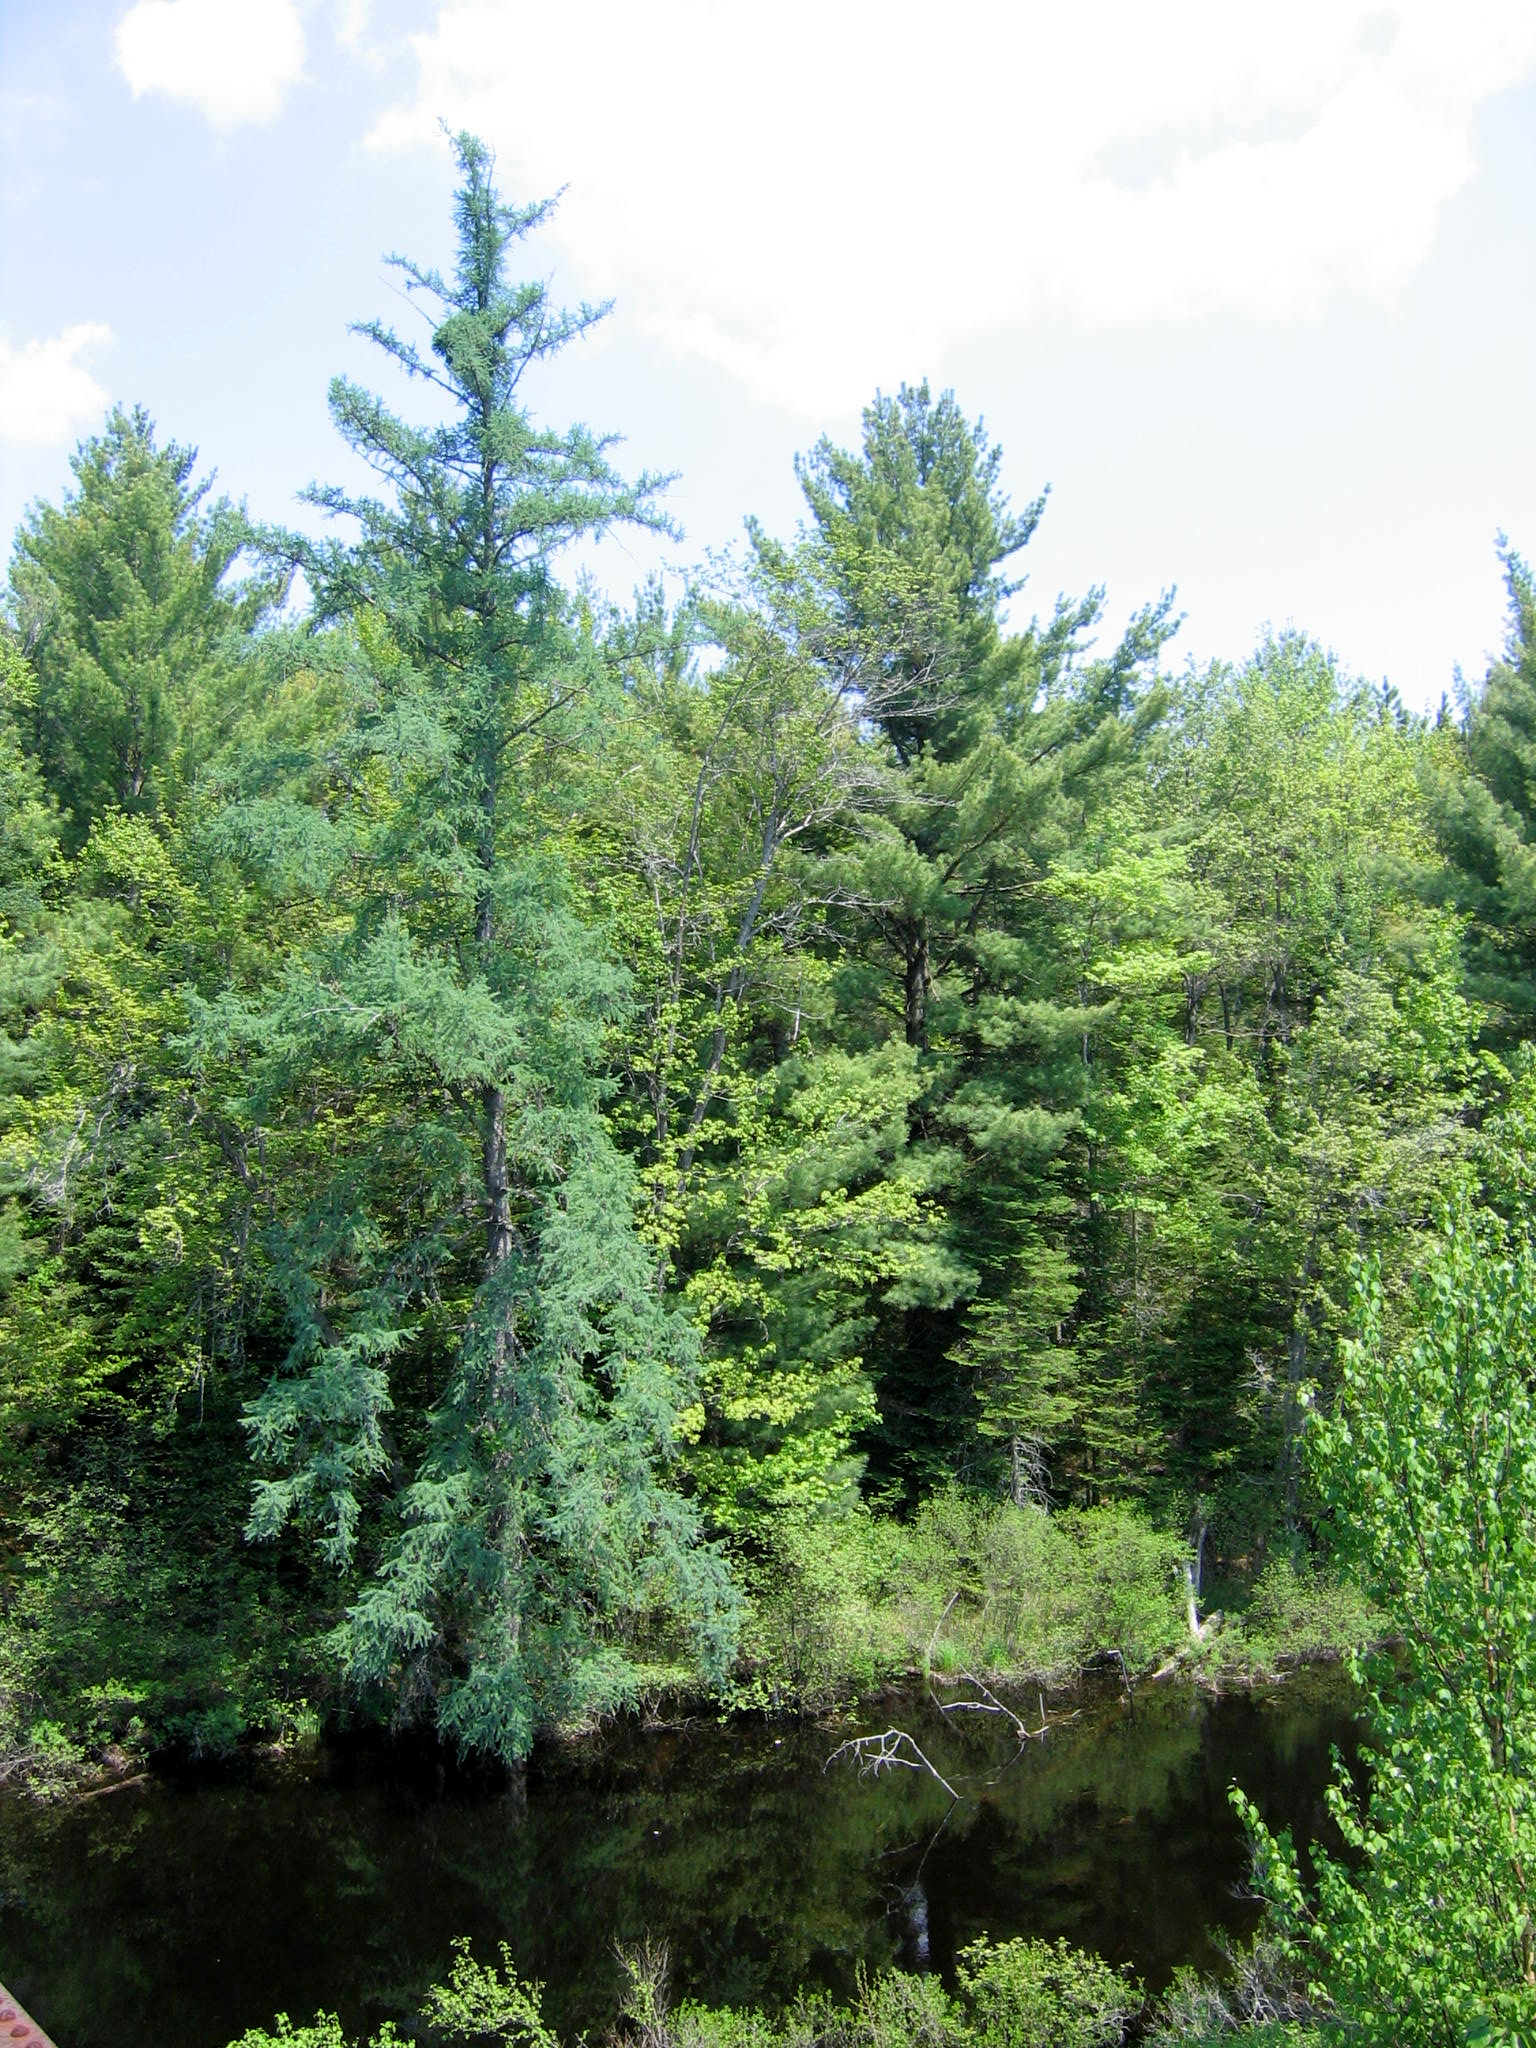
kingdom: Plantae
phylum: Tracheophyta
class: Pinopsida
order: Pinales
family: Pinaceae
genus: Larix
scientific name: Larix laricina
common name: American larch
